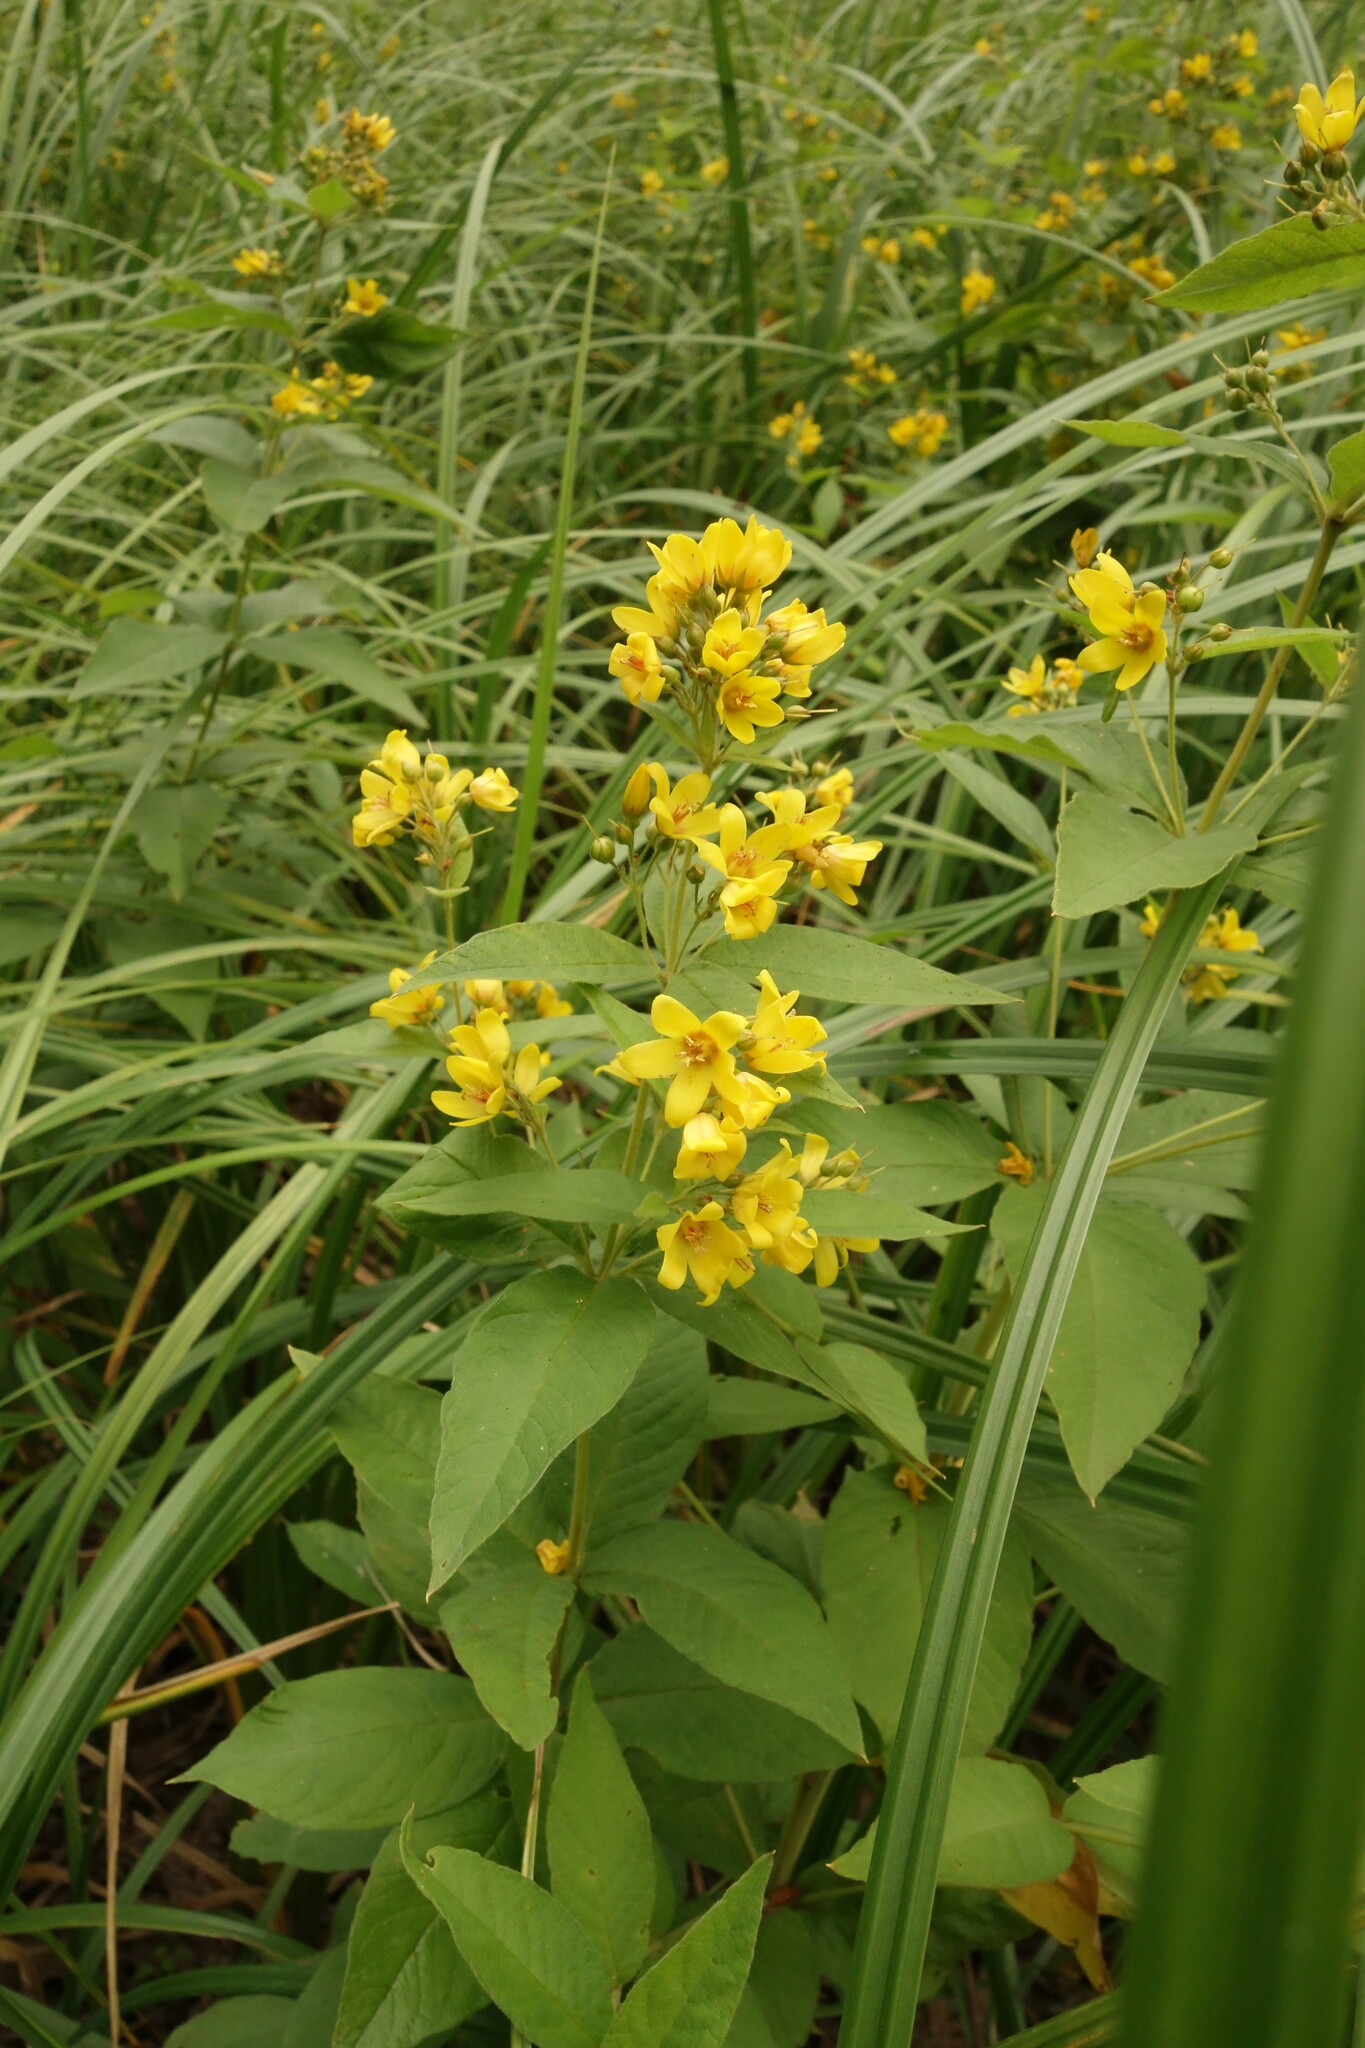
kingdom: Plantae
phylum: Tracheophyta
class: Magnoliopsida
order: Ericales
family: Primulaceae
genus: Lysimachia
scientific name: Lysimachia vulgaris
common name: Yellow loosestrife
